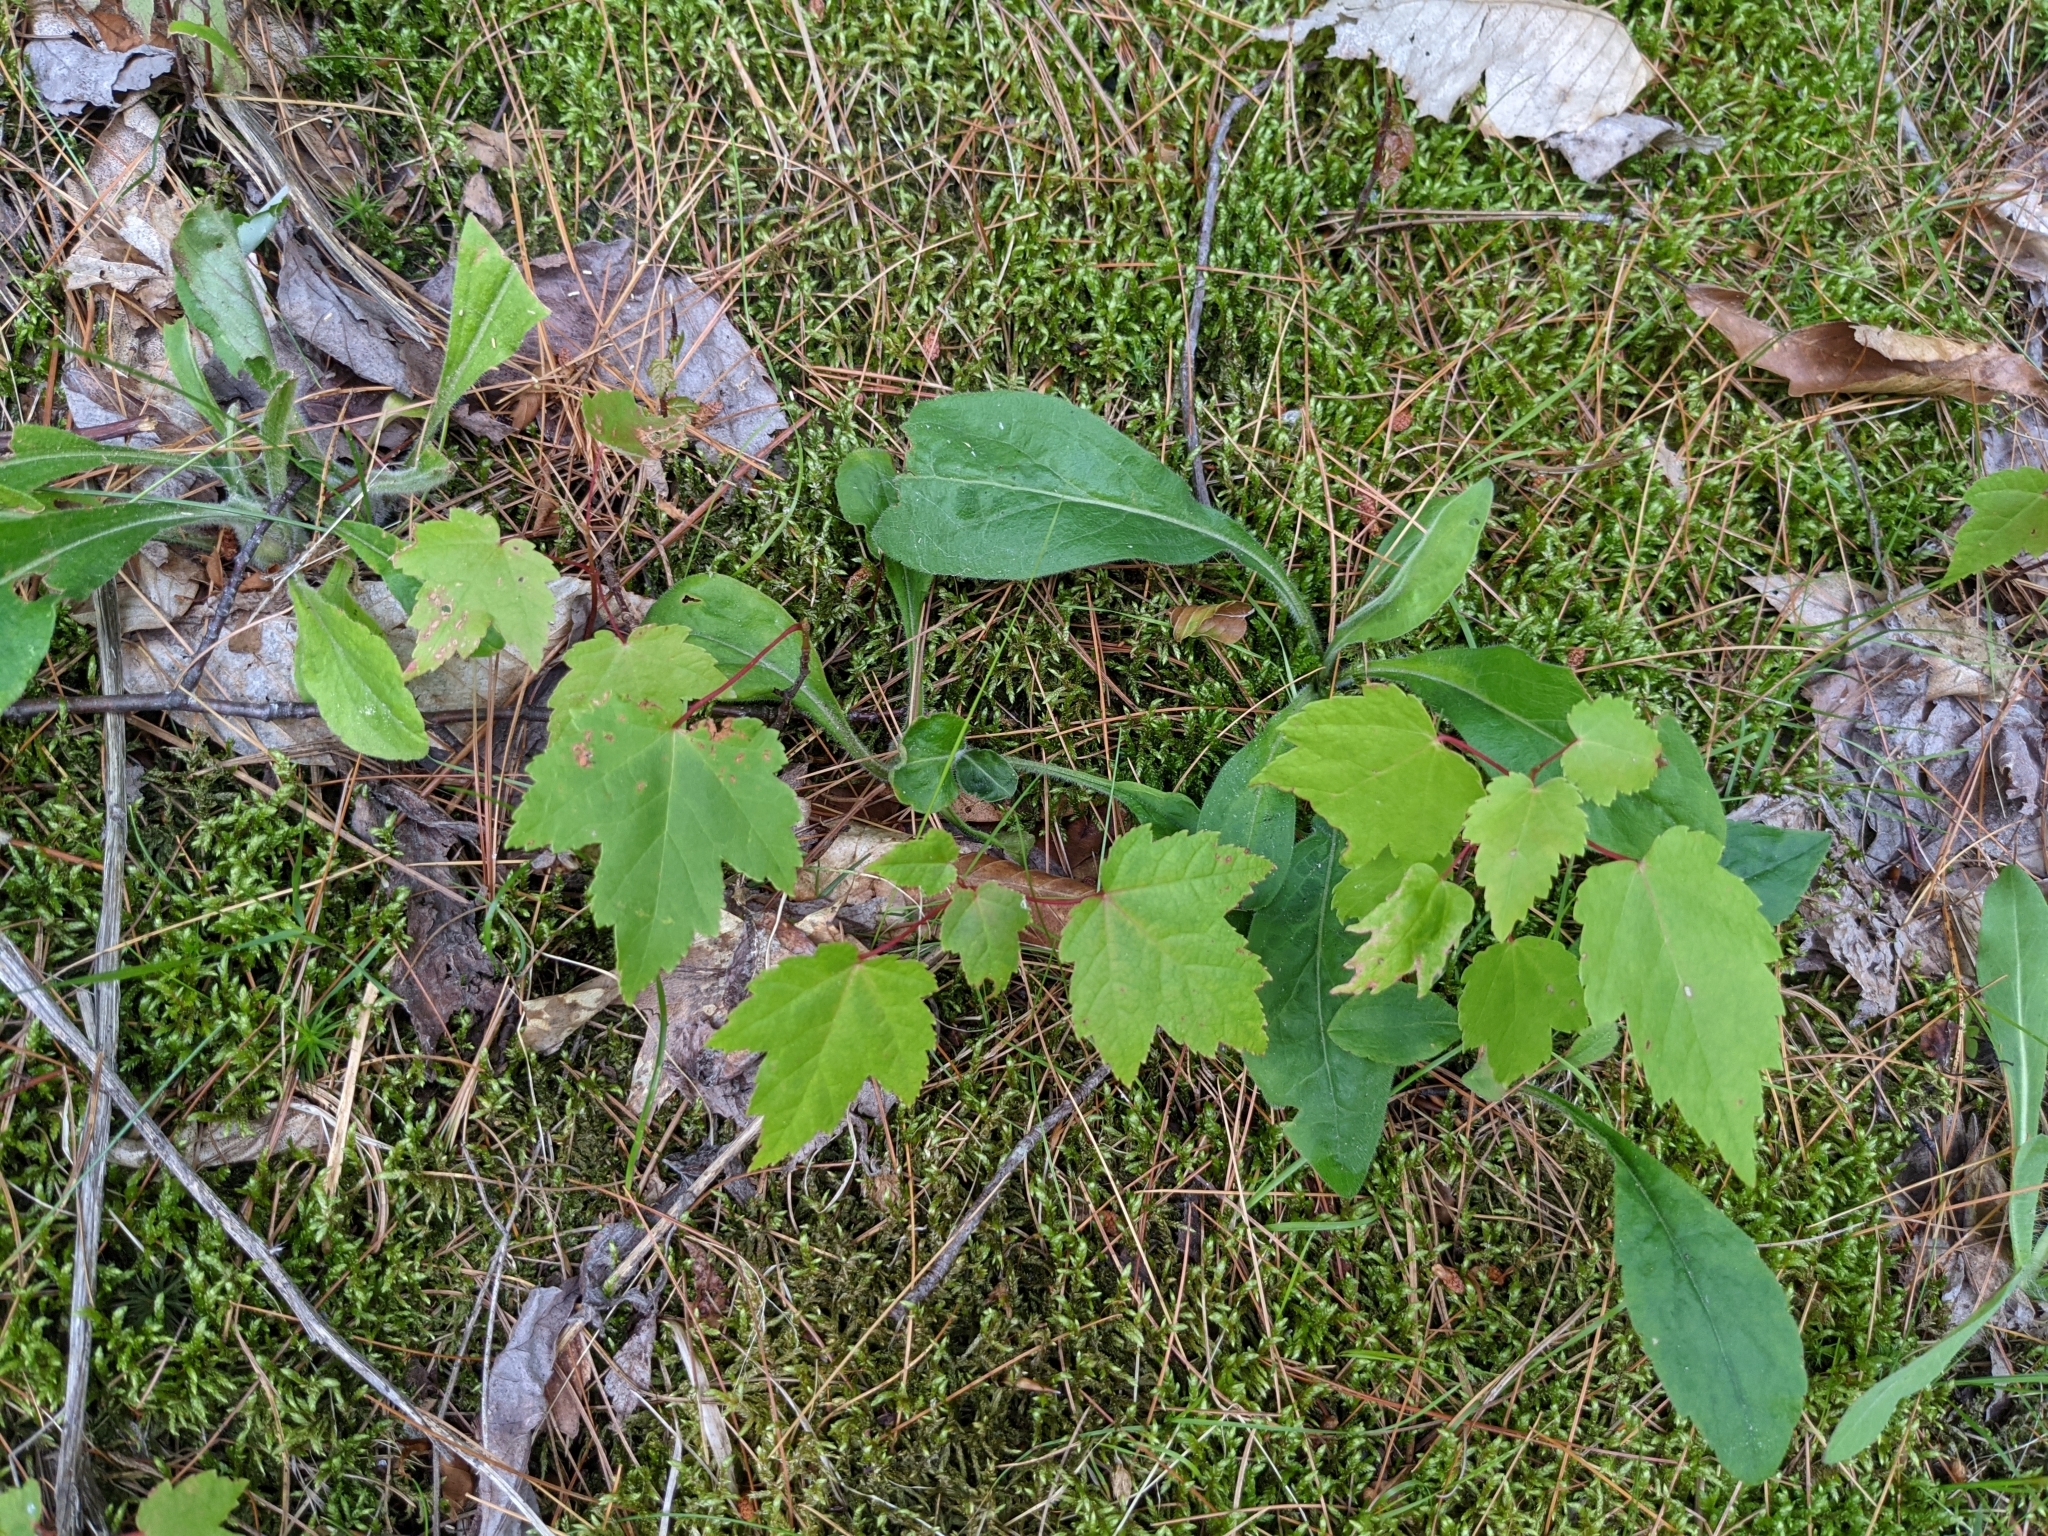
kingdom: Plantae
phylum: Tracheophyta
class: Magnoliopsida
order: Sapindales
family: Sapindaceae
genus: Acer
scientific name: Acer rubrum
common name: Red maple
